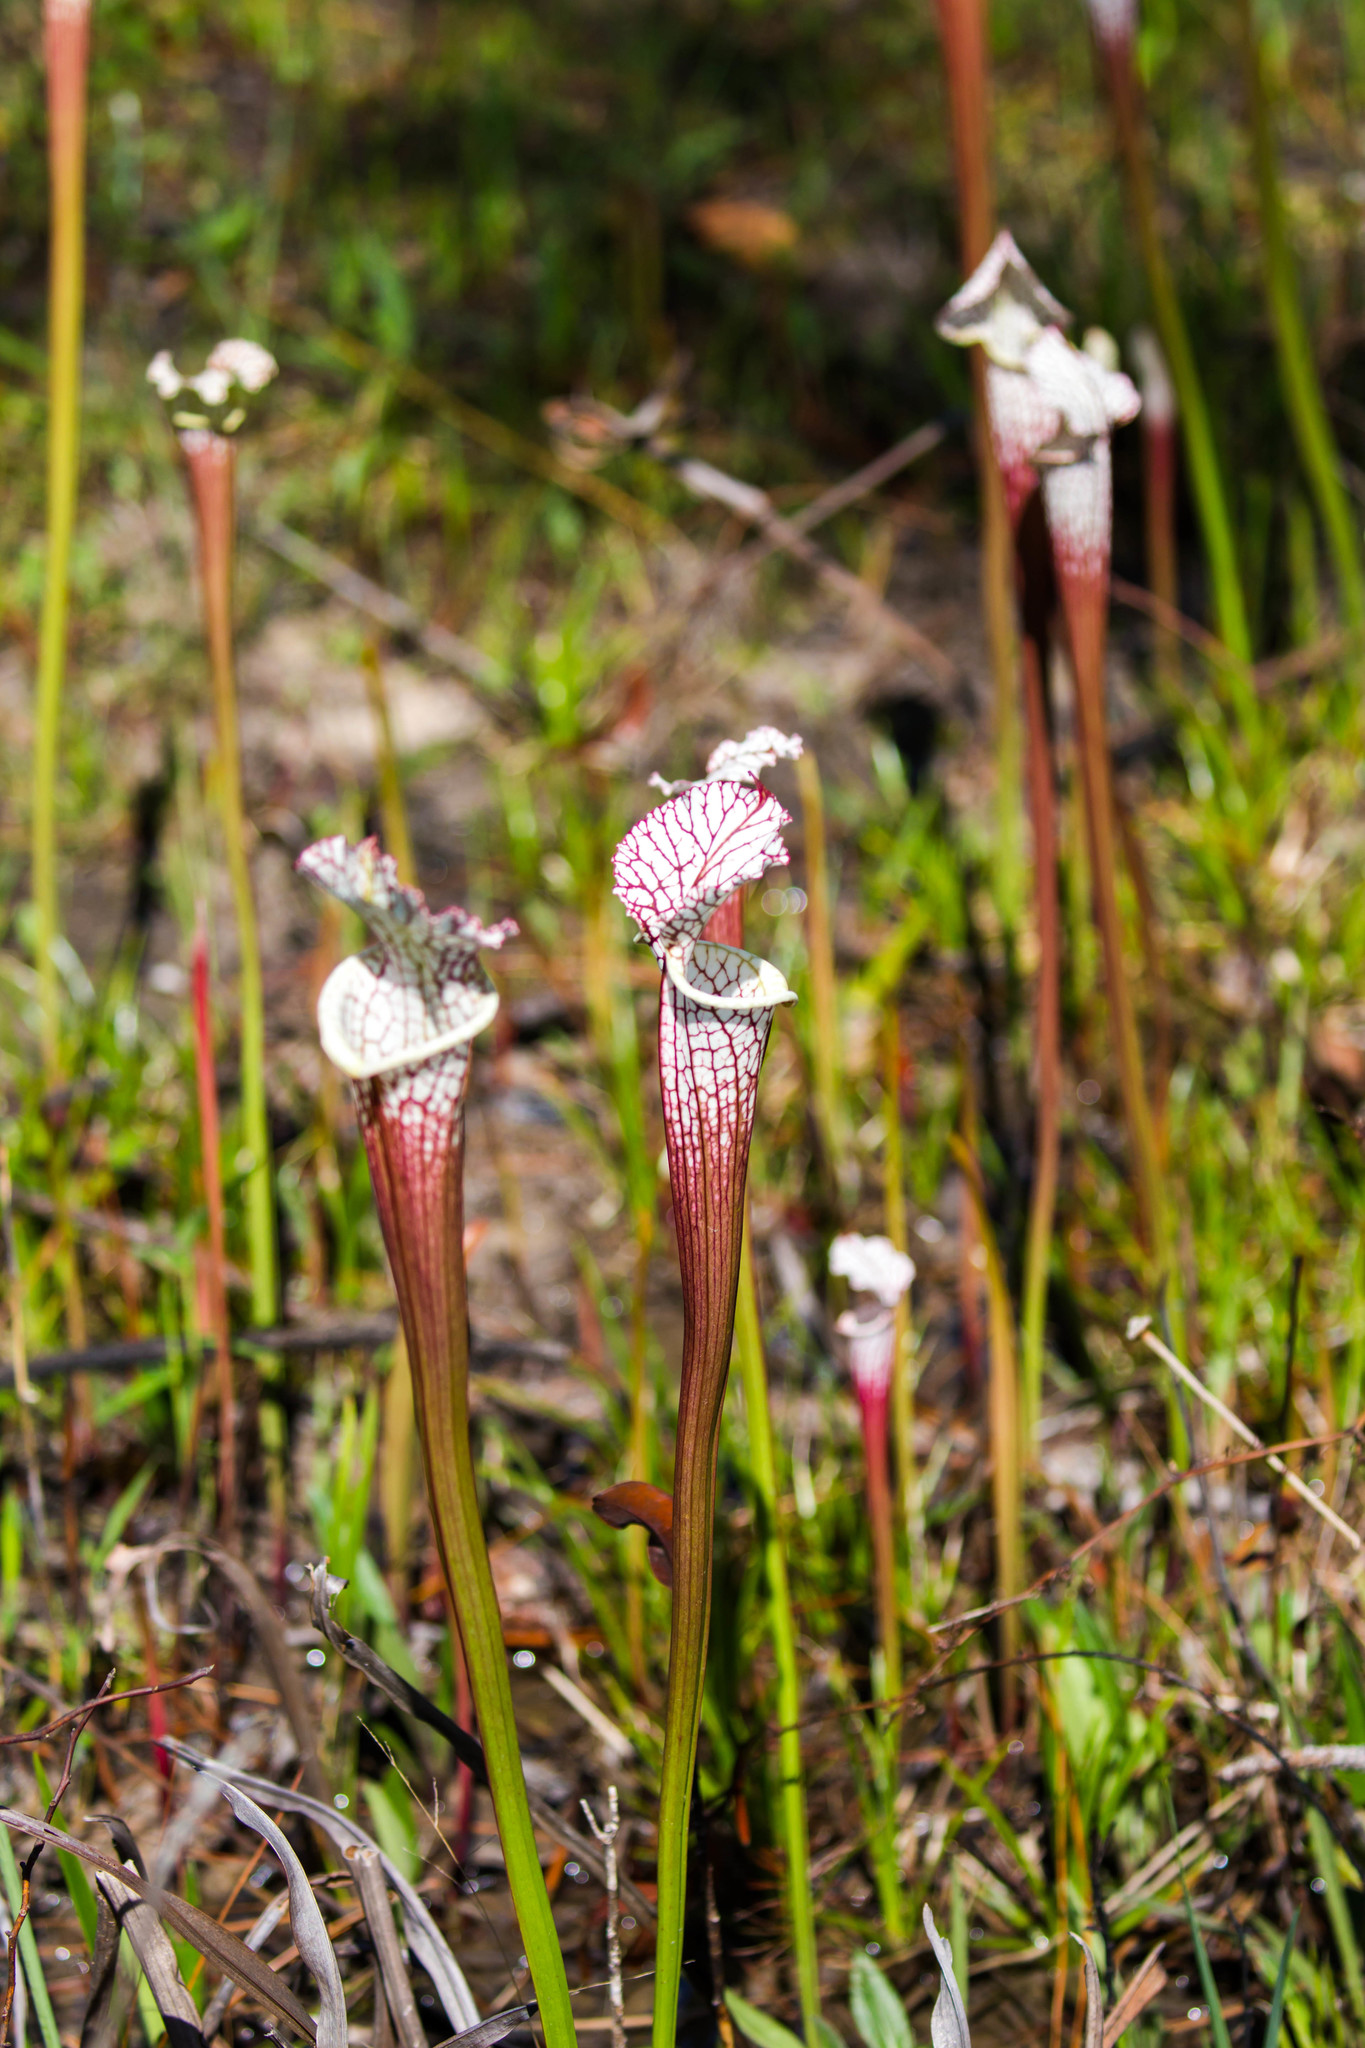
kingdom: Plantae
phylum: Tracheophyta
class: Magnoliopsida
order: Ericales
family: Sarraceniaceae
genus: Sarracenia
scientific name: Sarracenia leucophylla
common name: Purple trumpetleaf
